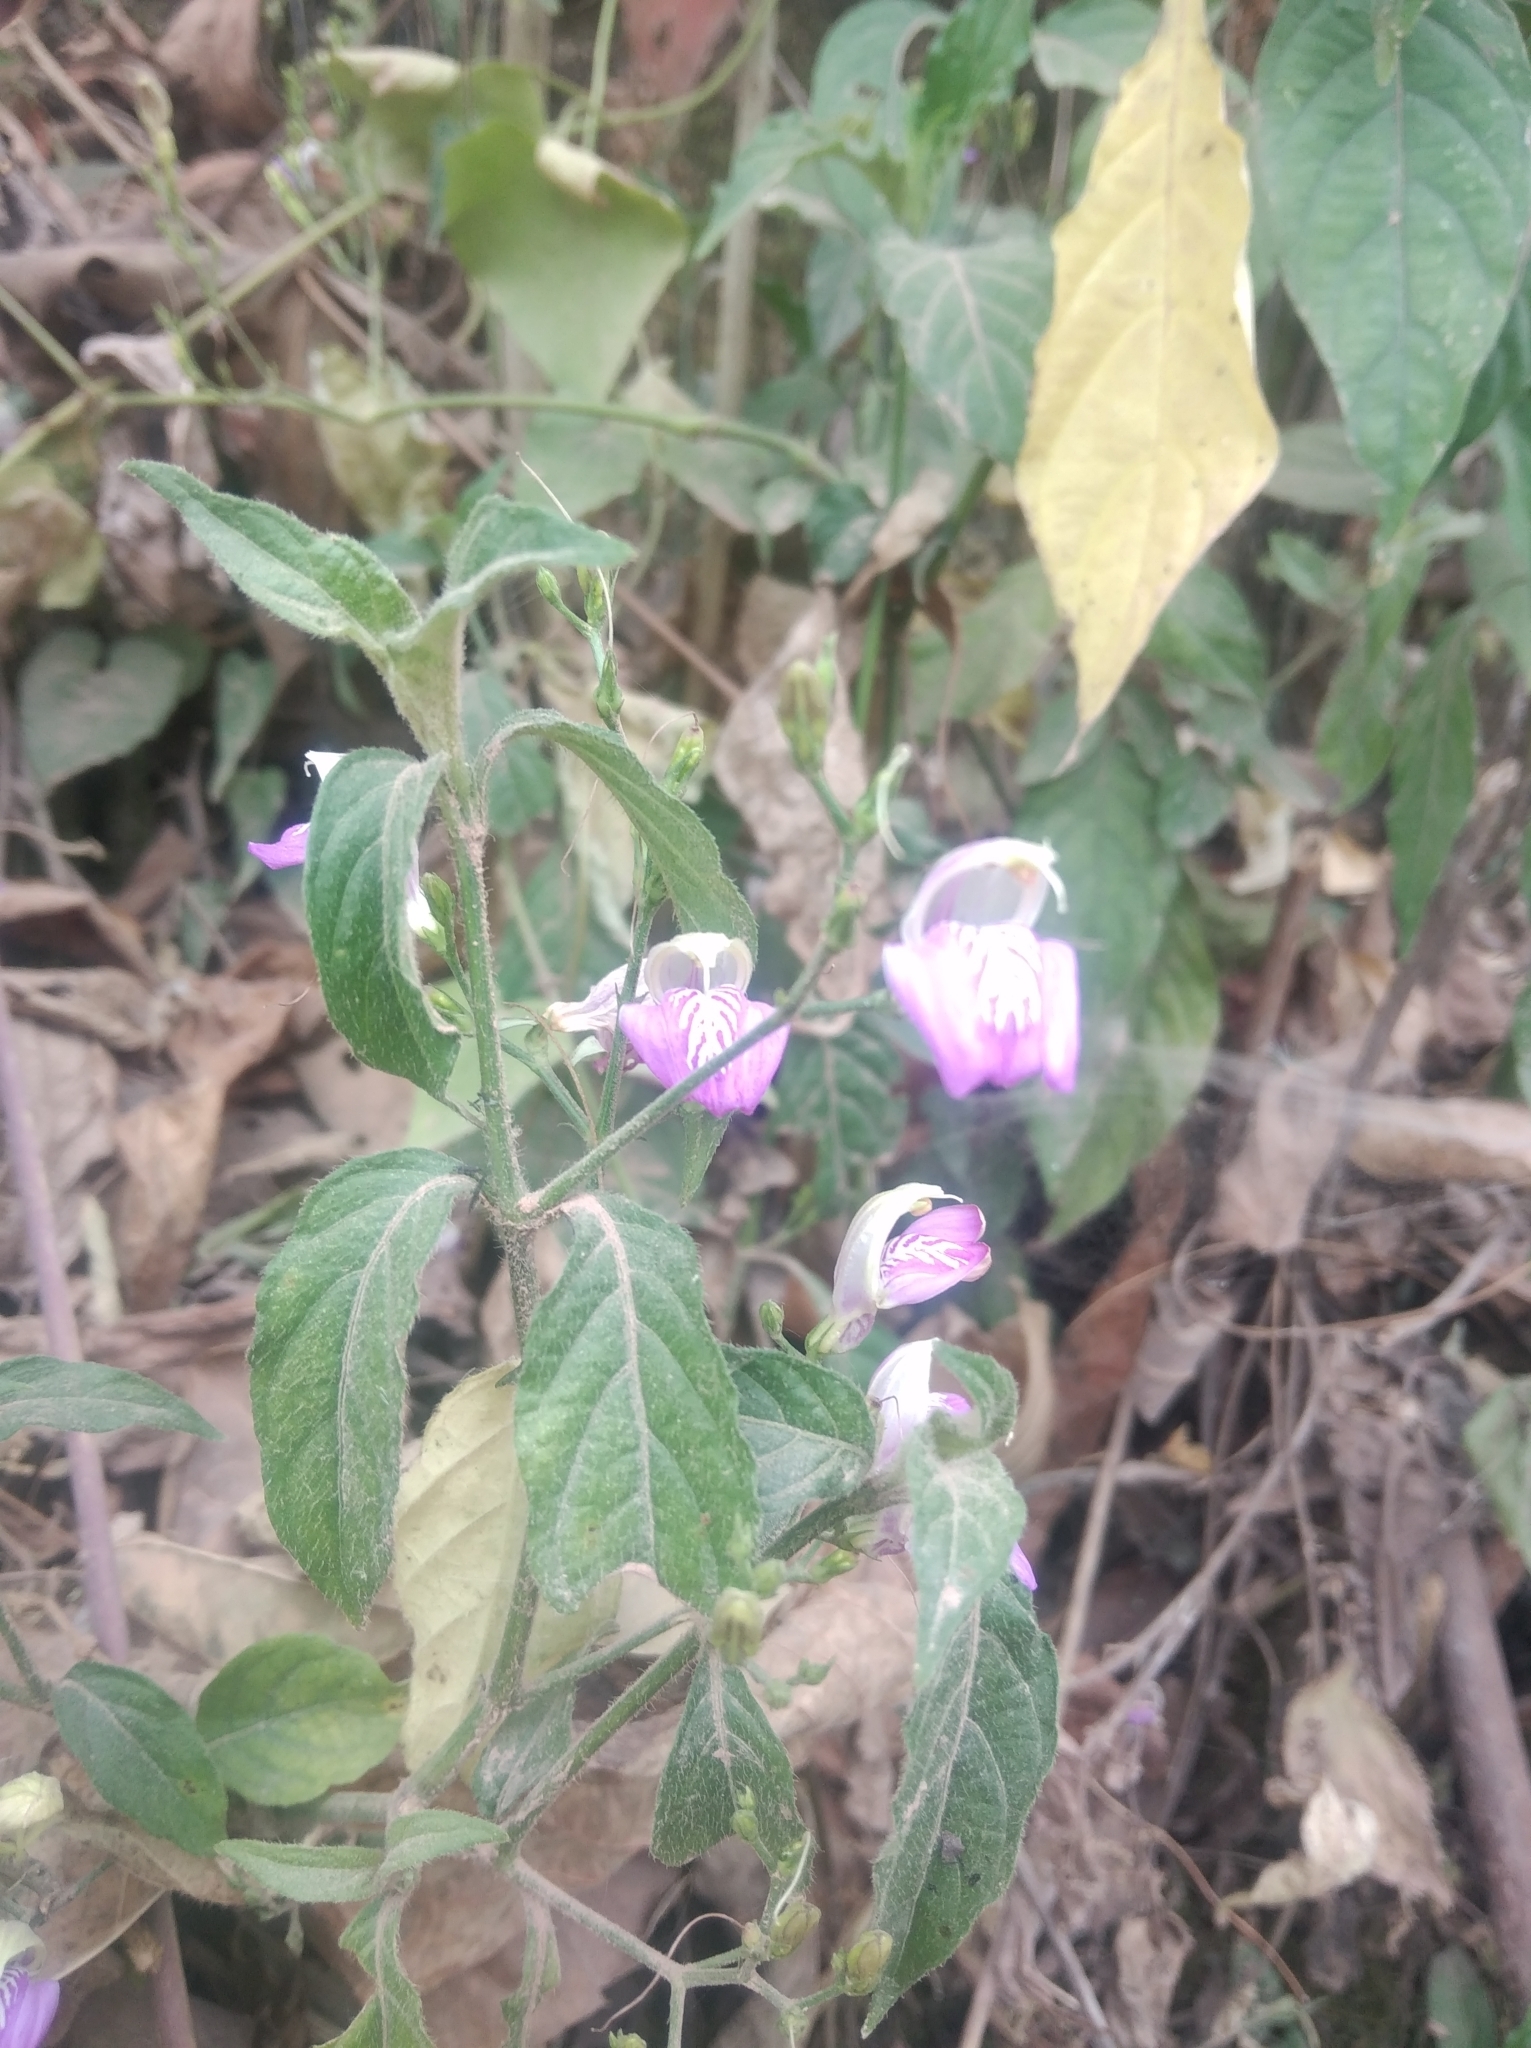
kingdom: Plantae
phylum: Tracheophyta
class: Magnoliopsida
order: Lamiales
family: Acanthaceae
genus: Justicia
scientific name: Justicia kuntzei
